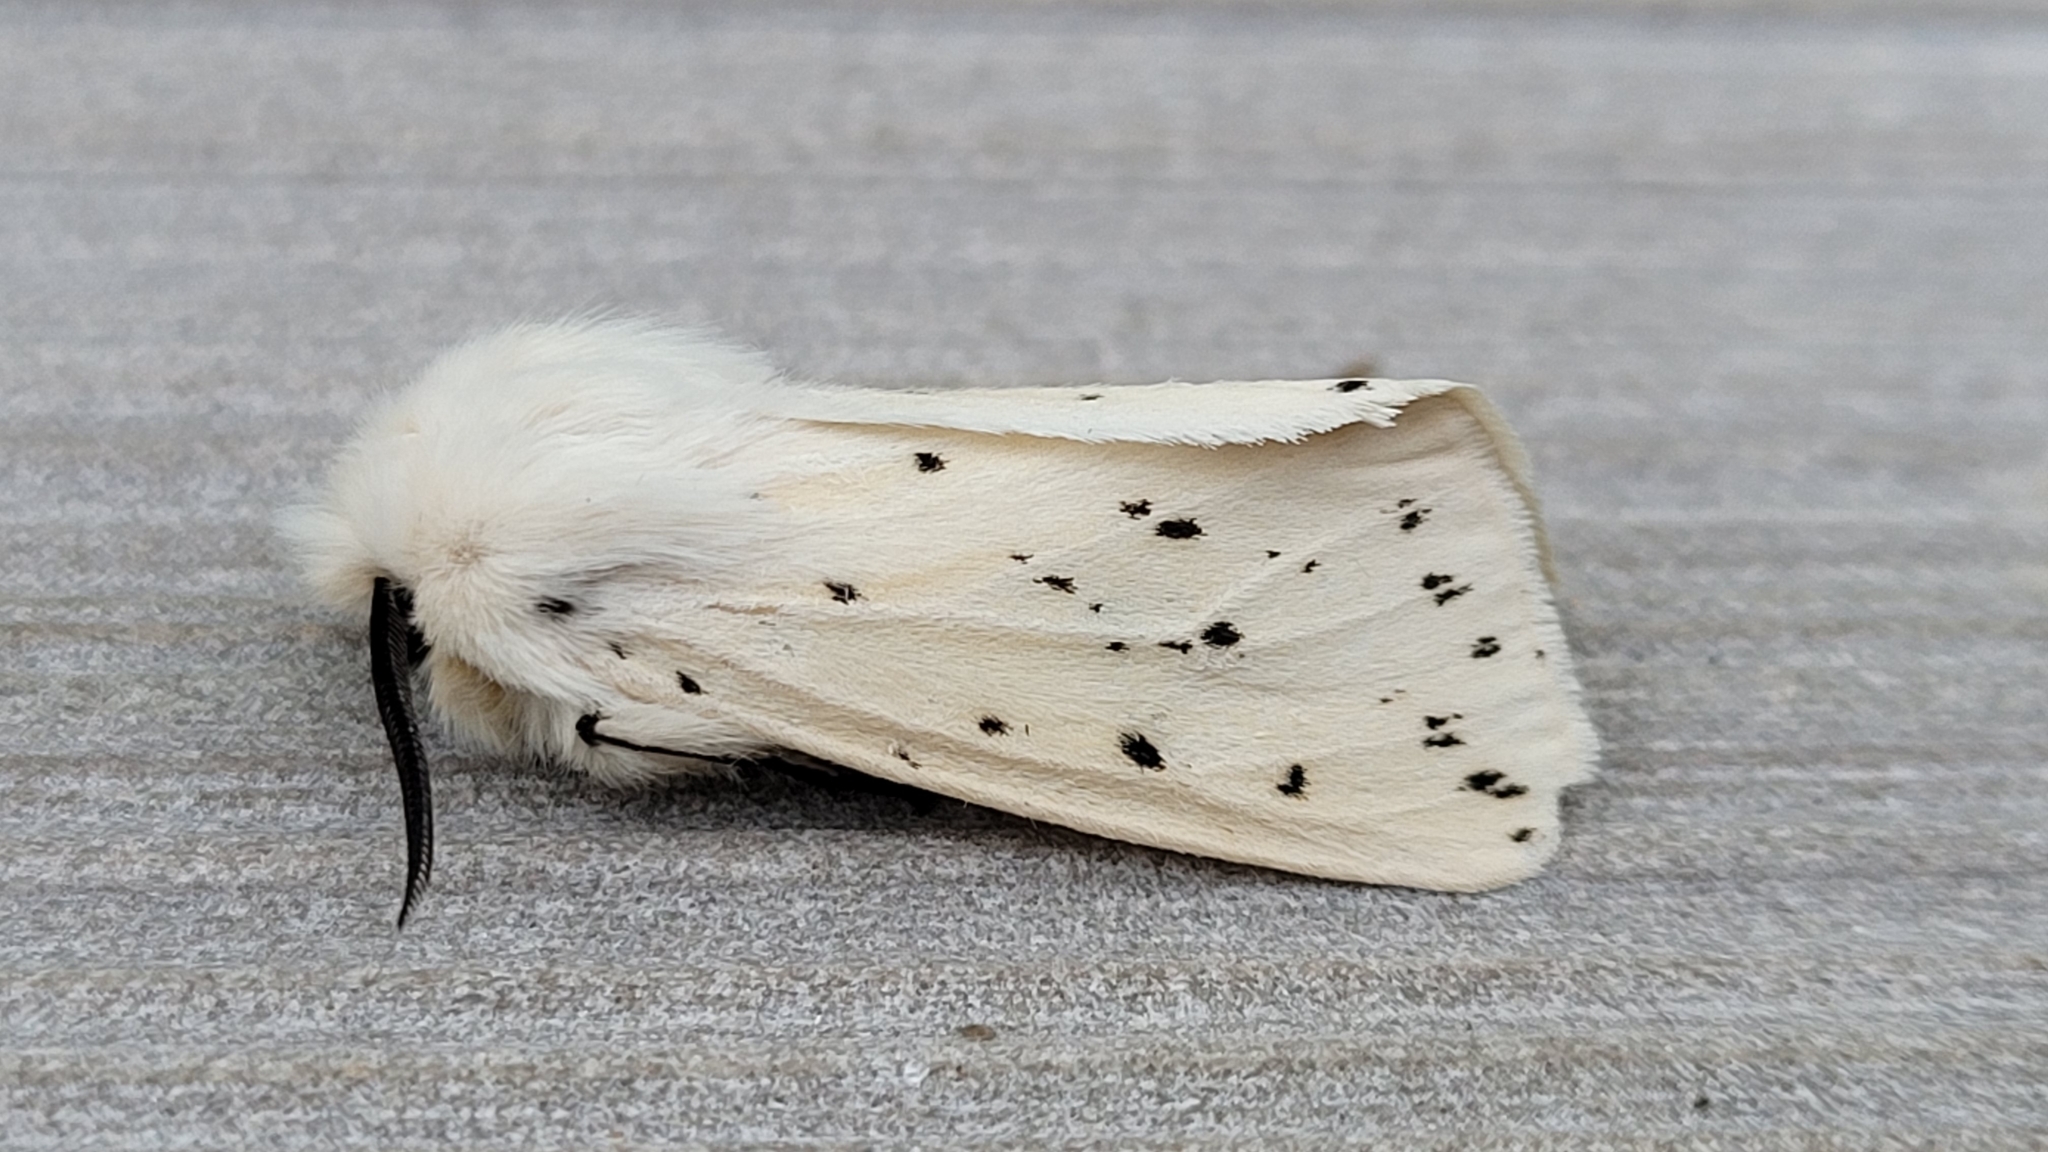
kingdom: Animalia
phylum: Arthropoda
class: Insecta
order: Lepidoptera
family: Erebidae
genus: Spilosoma
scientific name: Spilosoma lubricipeda
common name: White ermine
